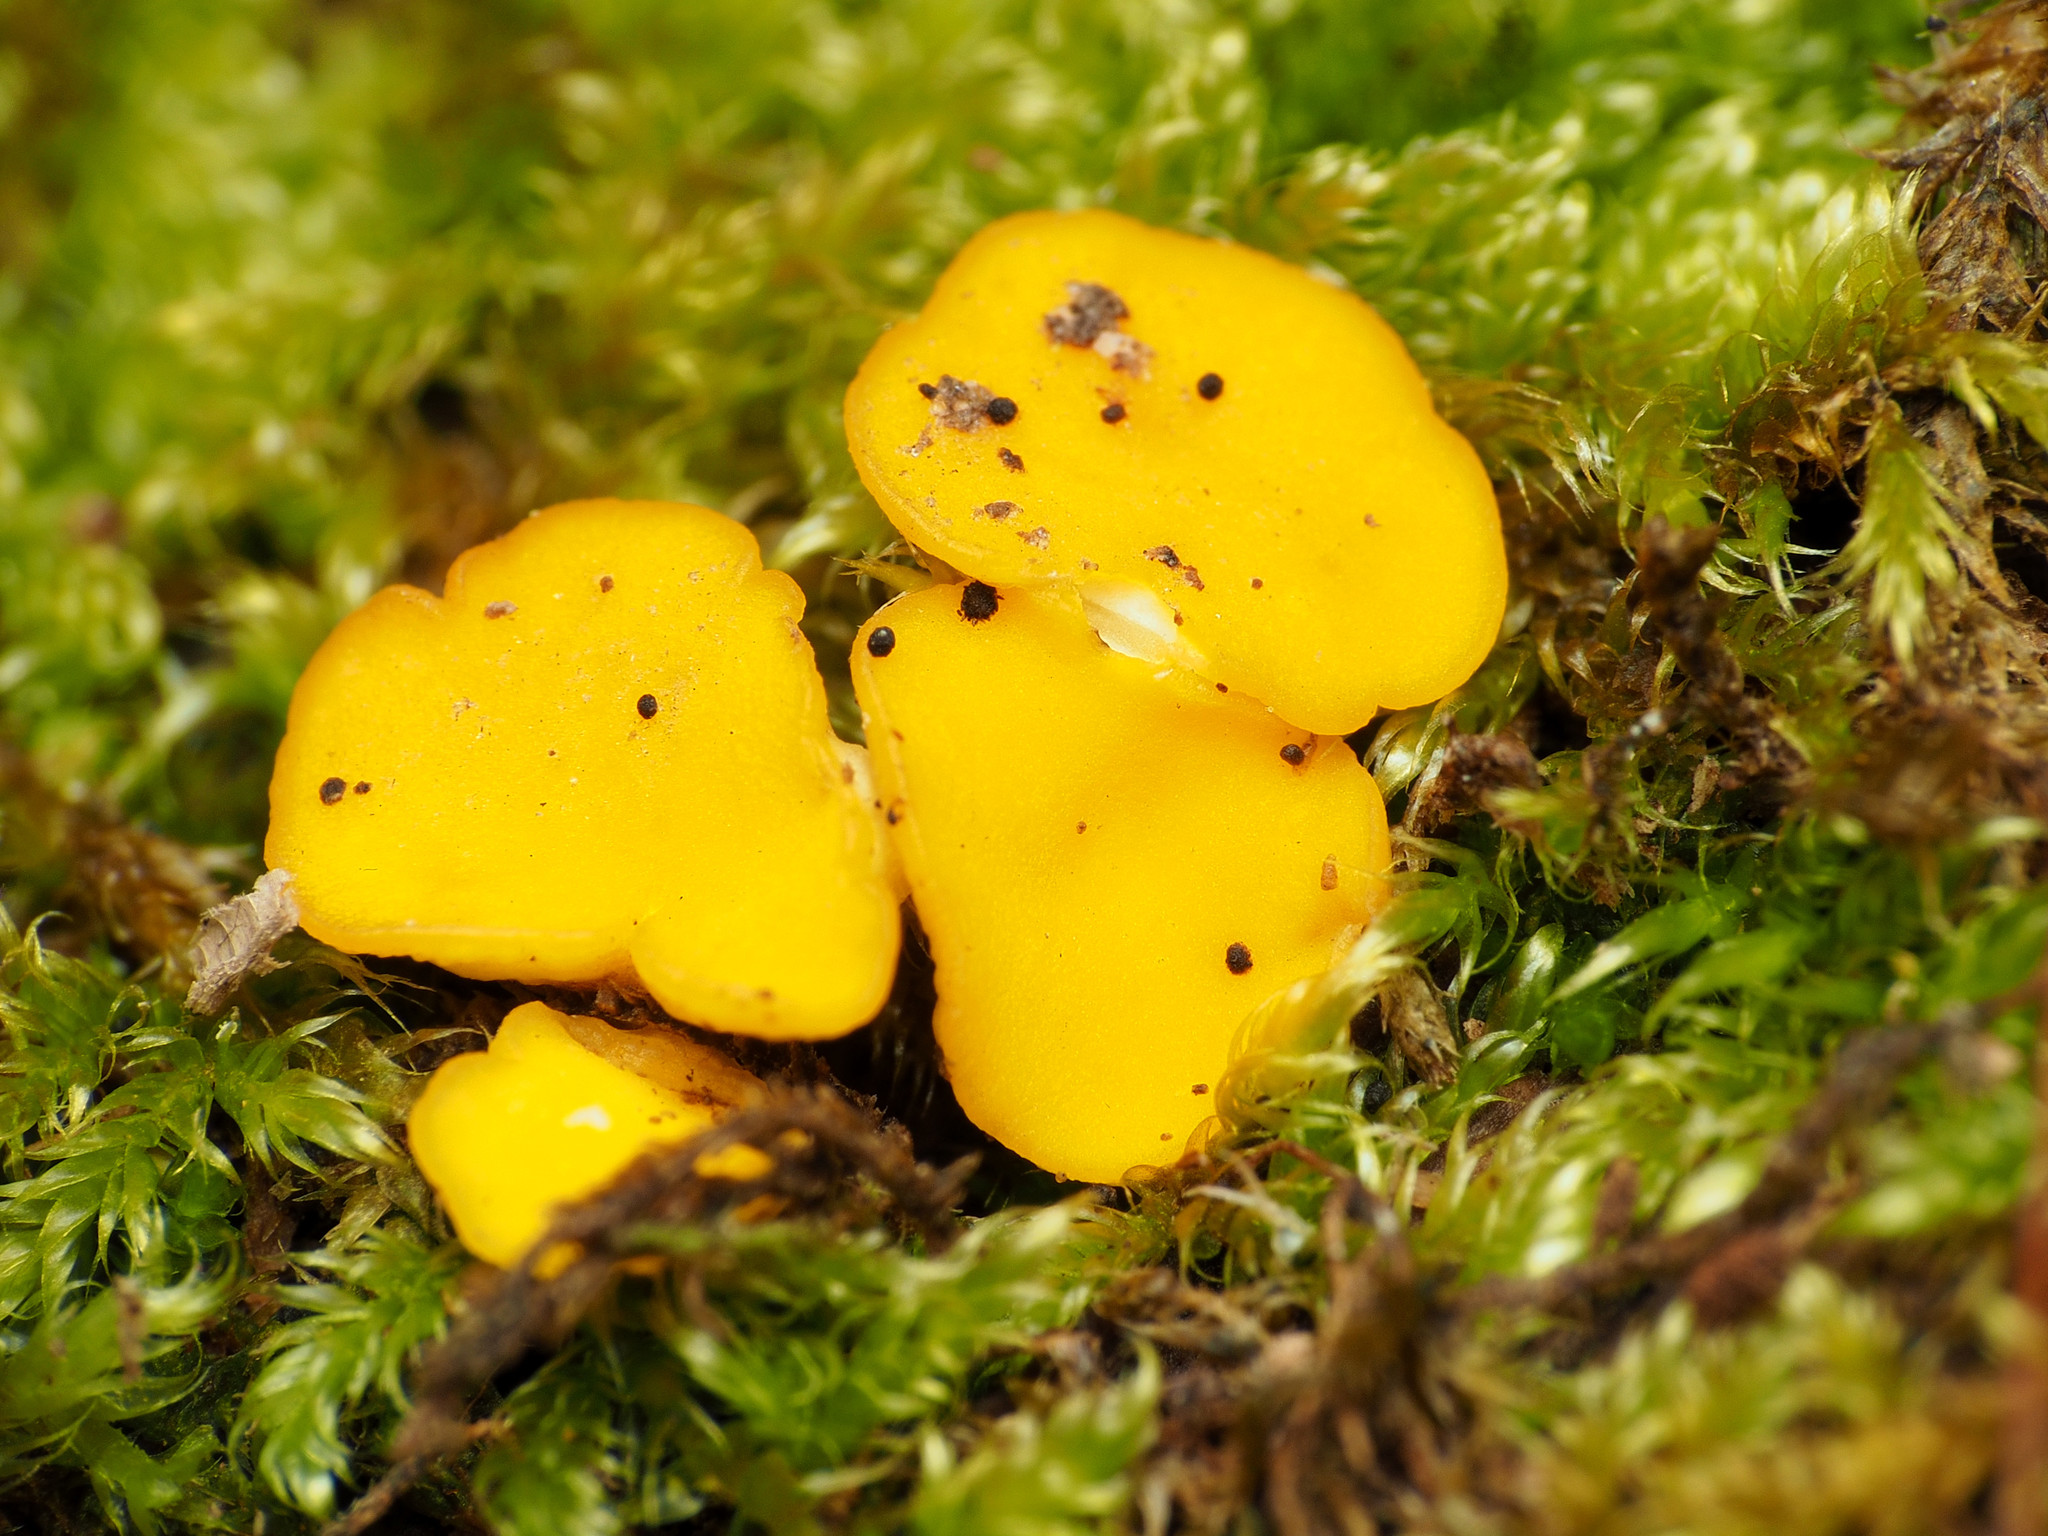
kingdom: Fungi
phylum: Ascomycota
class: Leotiomycetes
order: Helotiales
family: Pezizellaceae
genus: Calycina
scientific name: Calycina citrina
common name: Yellow fairy cups
